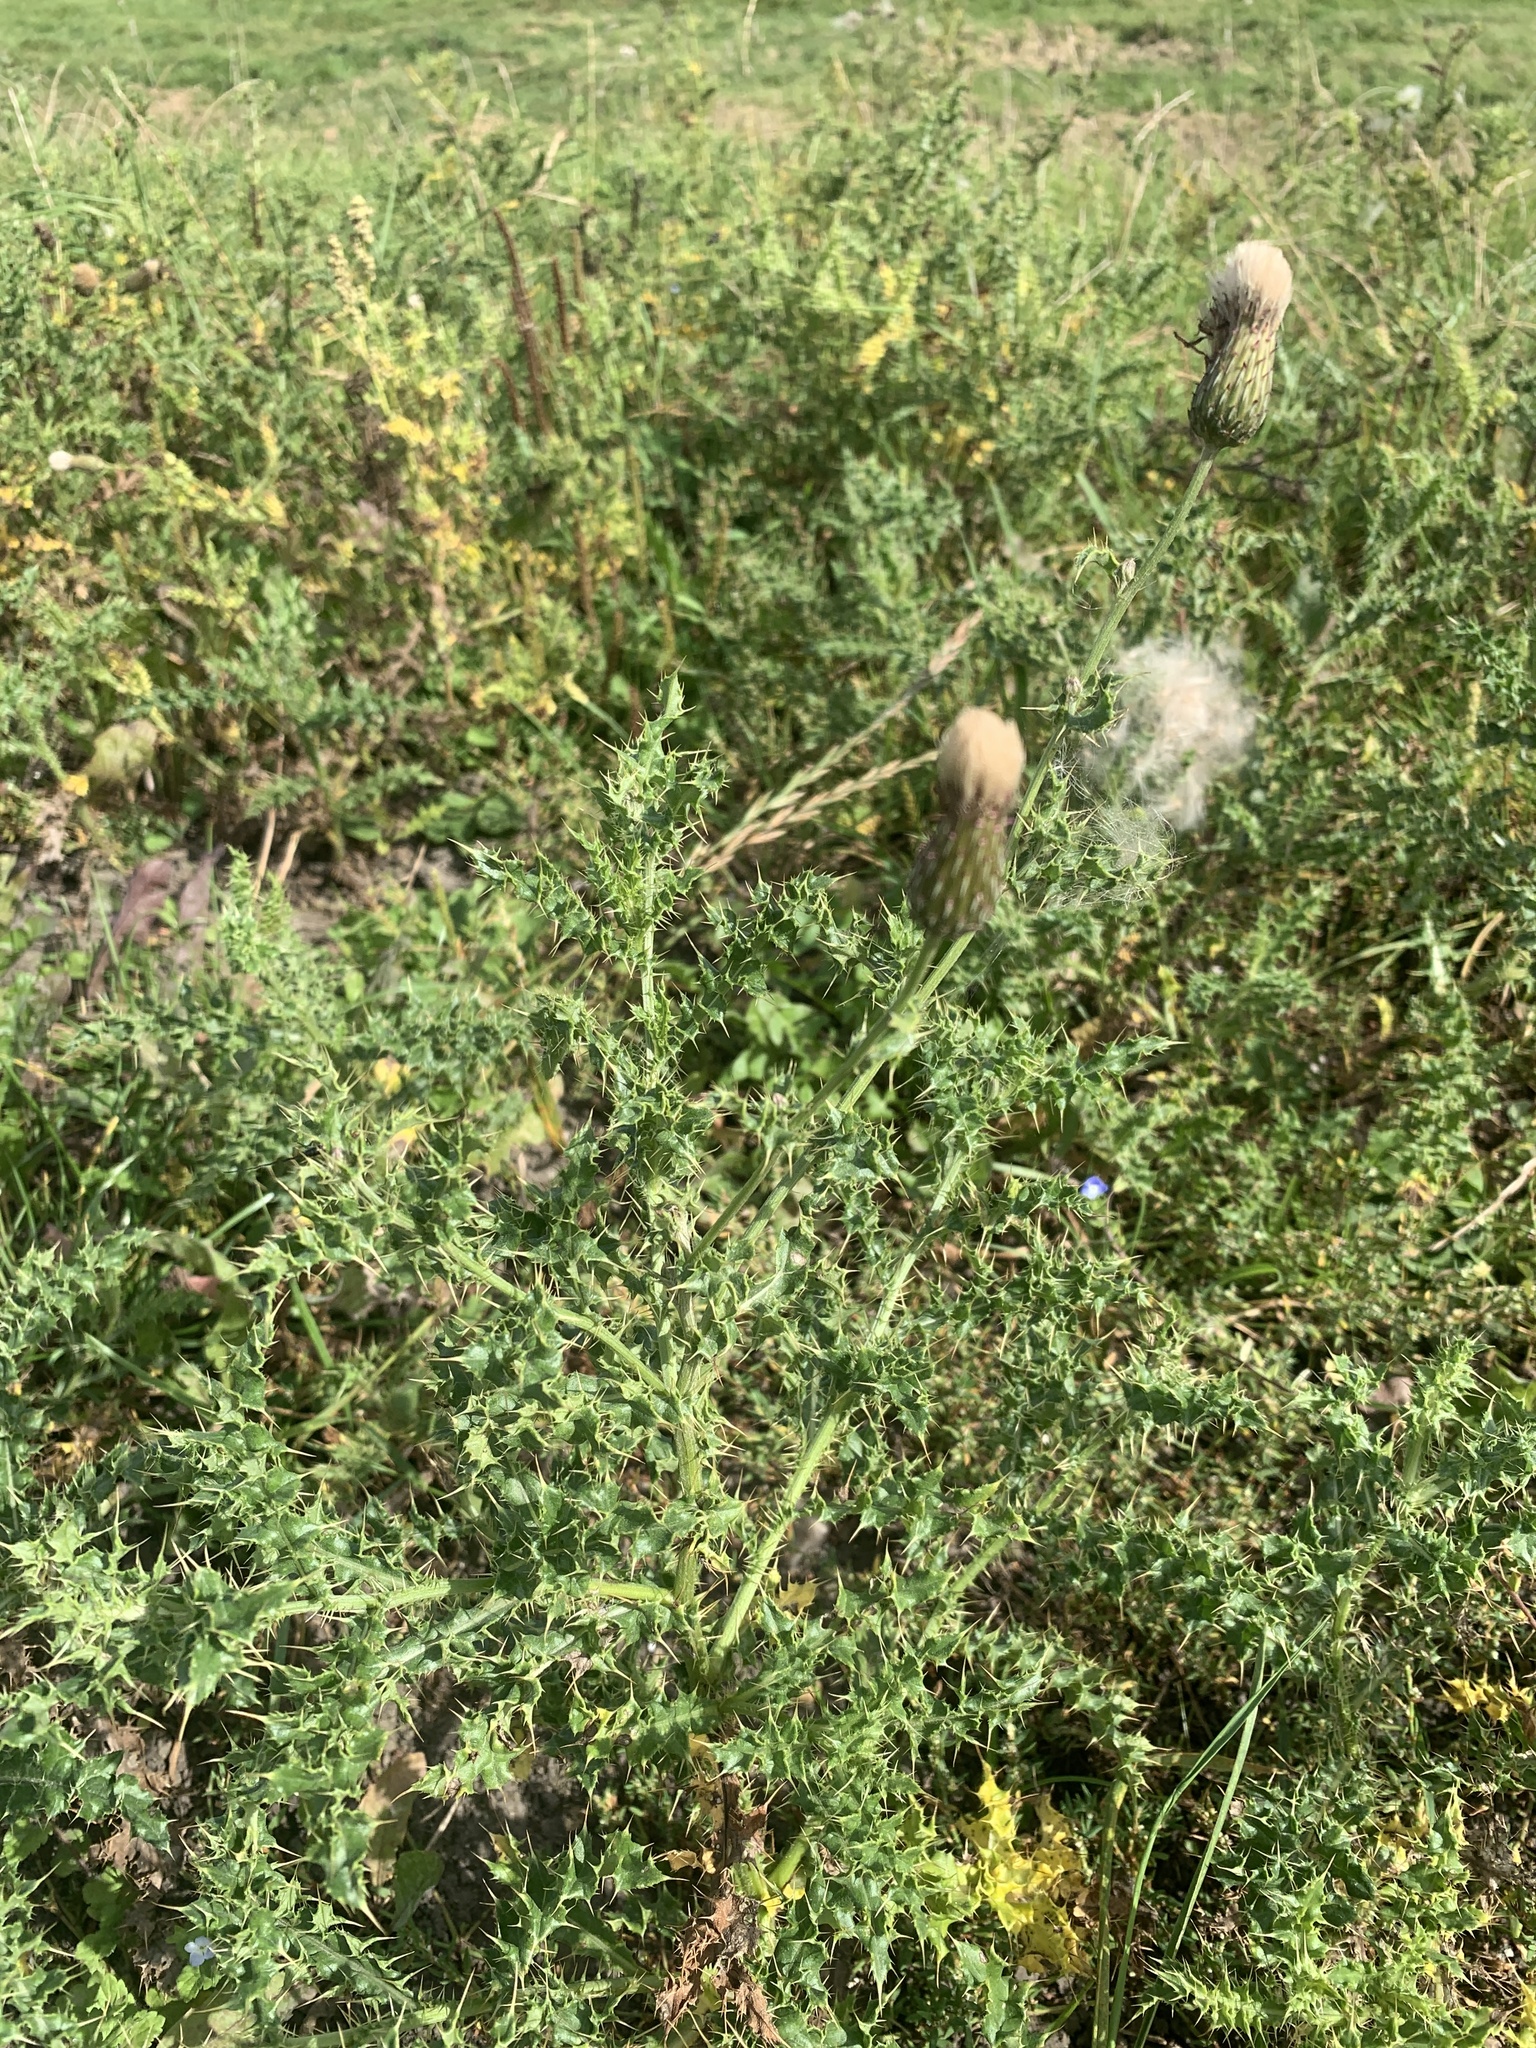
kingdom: Plantae
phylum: Tracheophyta
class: Magnoliopsida
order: Asterales
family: Asteraceae
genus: Cirsium
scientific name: Cirsium arvense
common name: Creeping thistle
